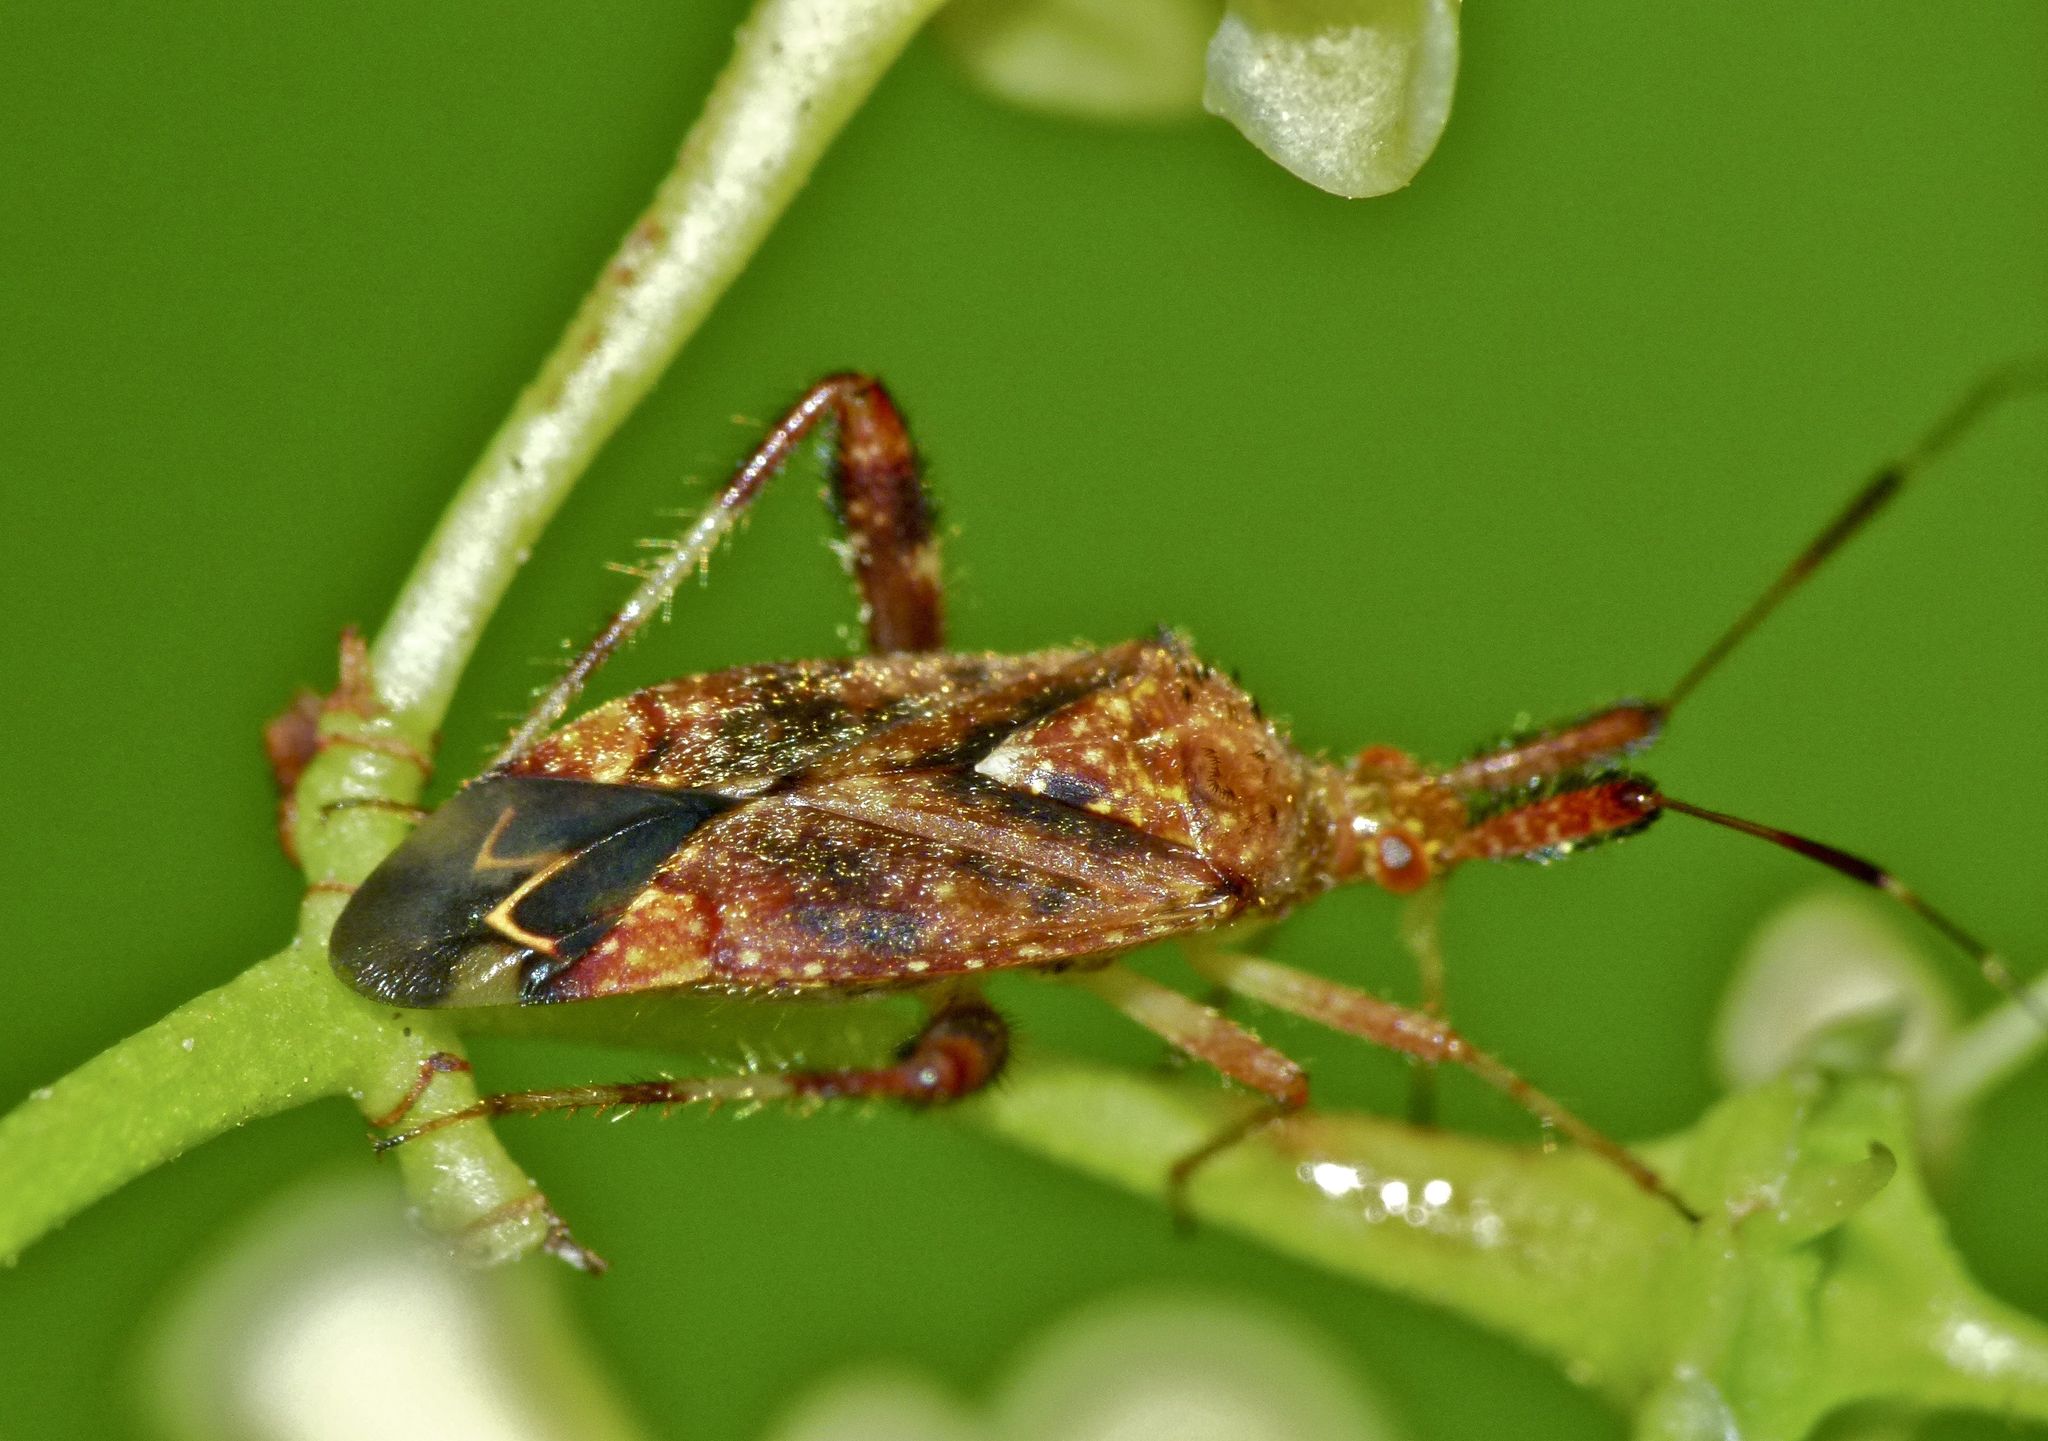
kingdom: Animalia
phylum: Arthropoda
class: Insecta
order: Hemiptera
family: Miridae
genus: Neurocolpus
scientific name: Neurocolpus
